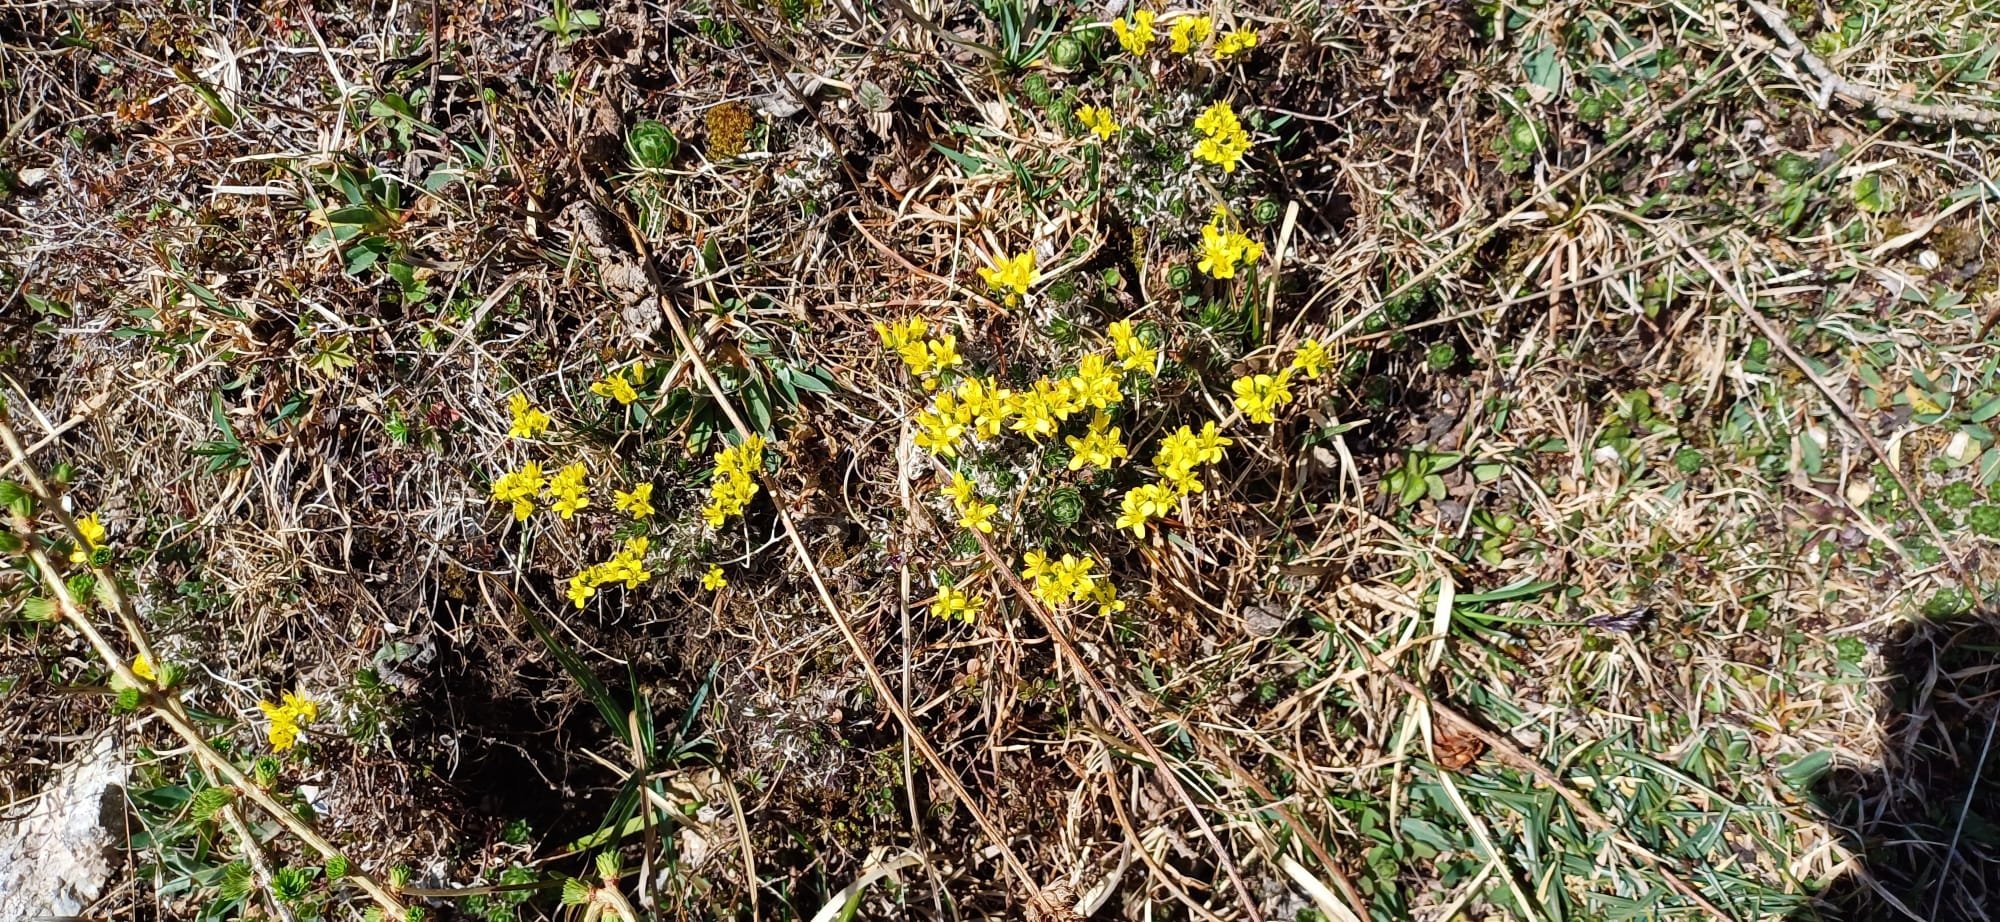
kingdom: Plantae
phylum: Tracheophyta
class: Magnoliopsida
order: Brassicales
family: Brassicaceae
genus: Draba
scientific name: Draba aizoides
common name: Yellow whitlowgrass
